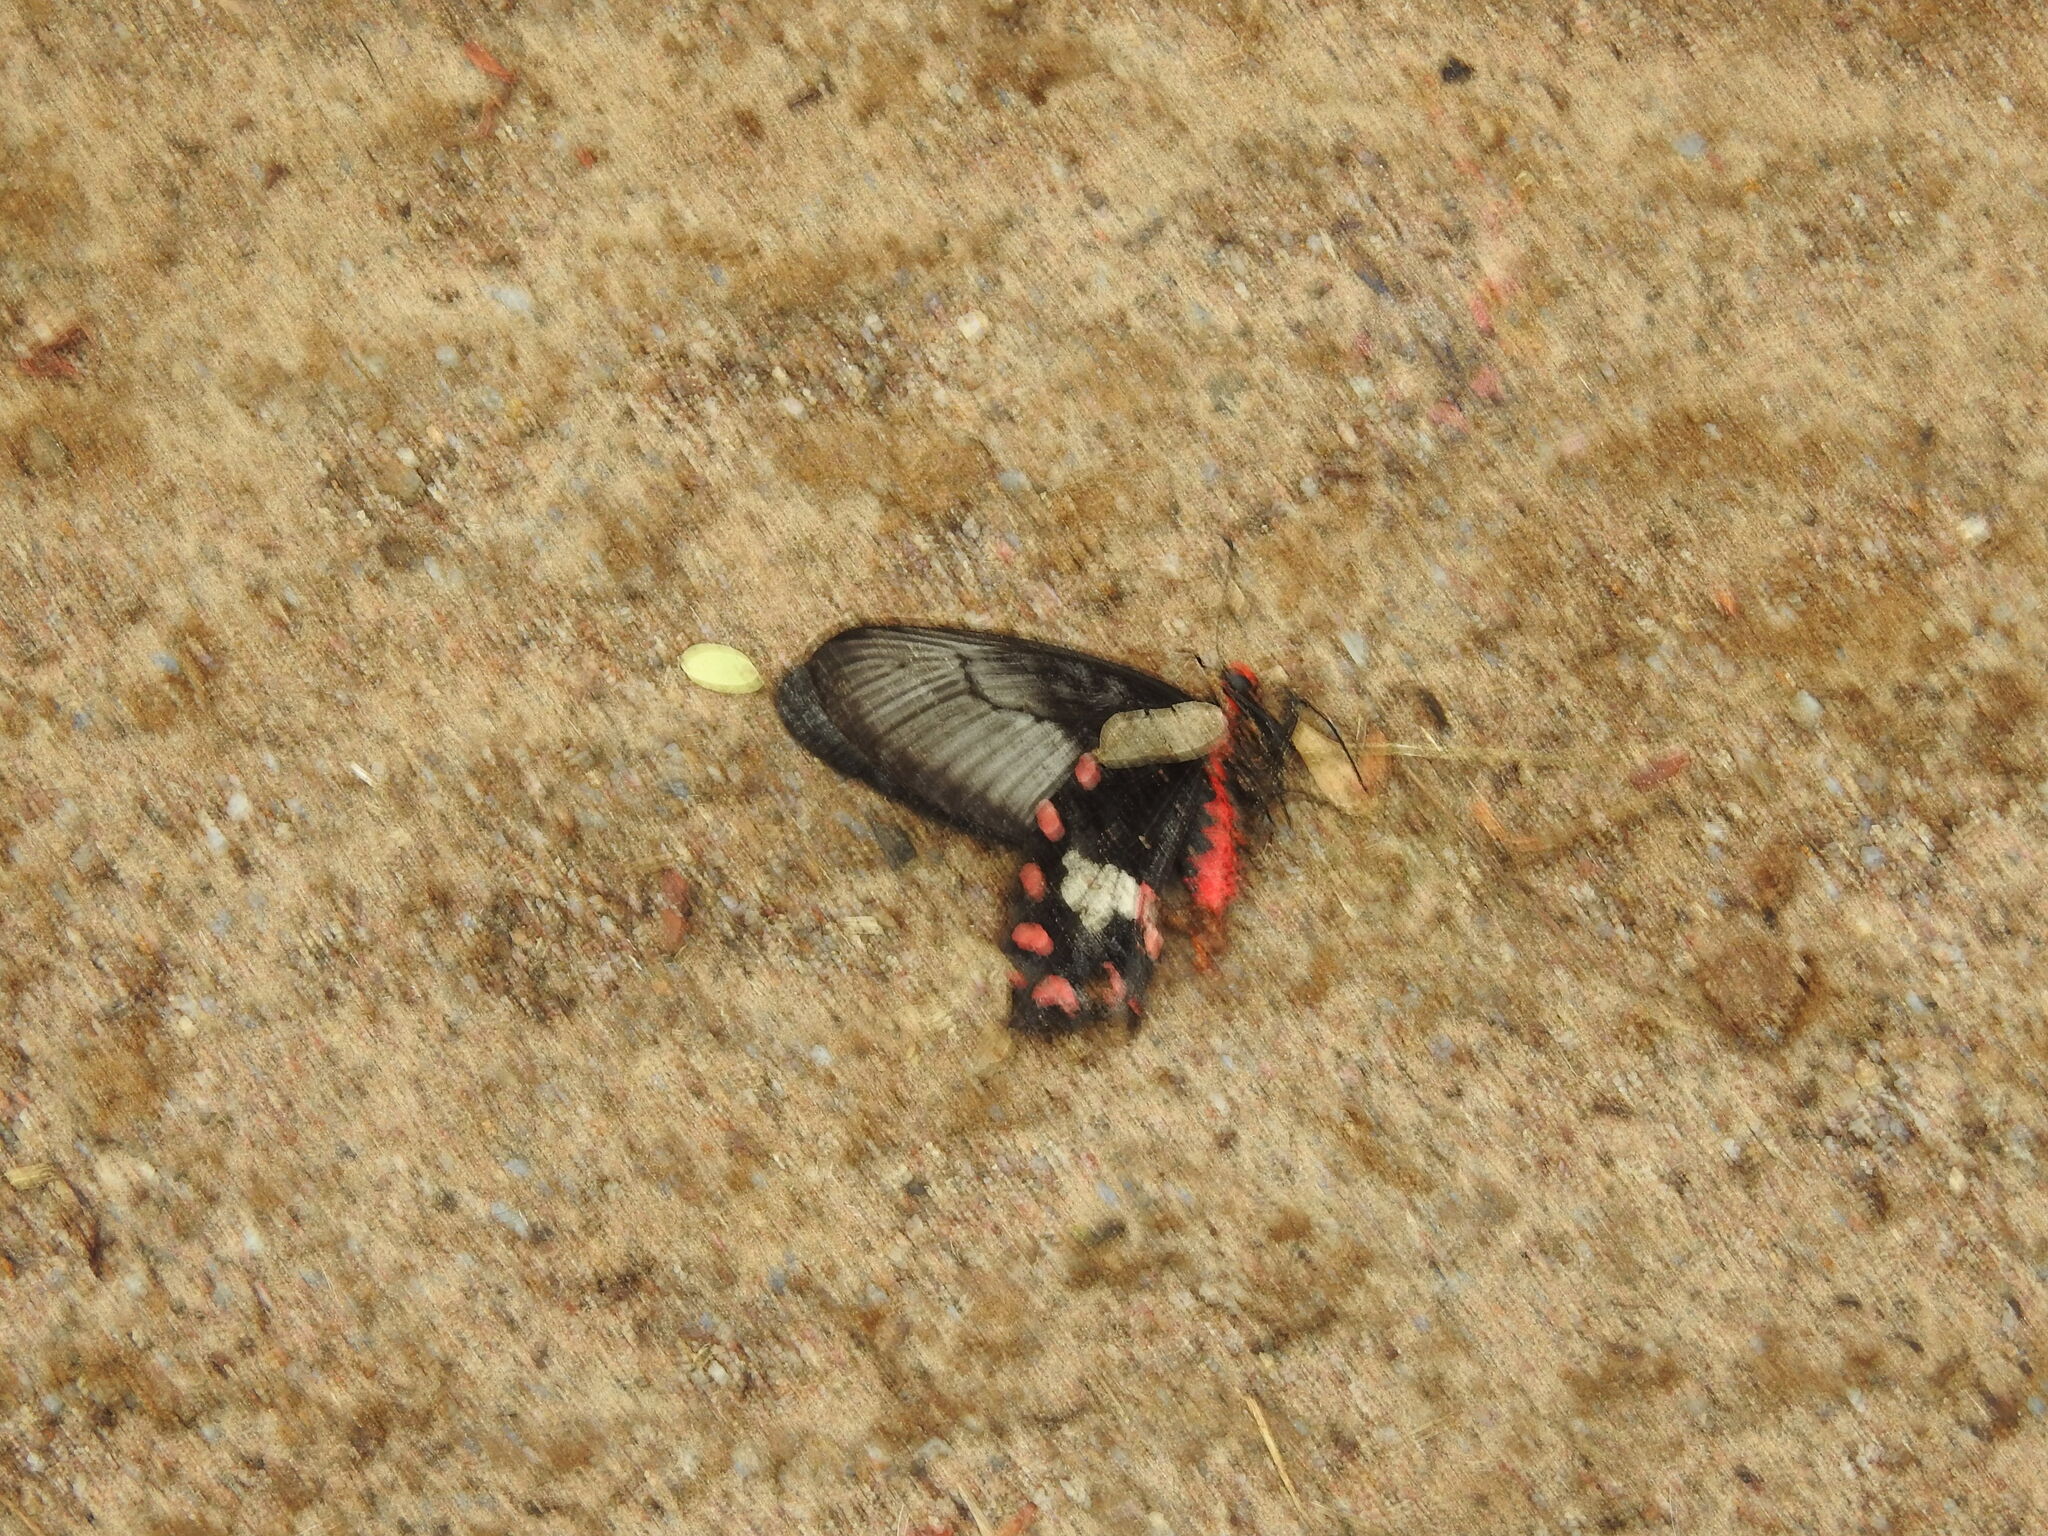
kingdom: Animalia
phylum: Arthropoda
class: Insecta
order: Lepidoptera
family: Papilionidae
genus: Pachliopta
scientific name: Pachliopta aristolochiae
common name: Common rose
